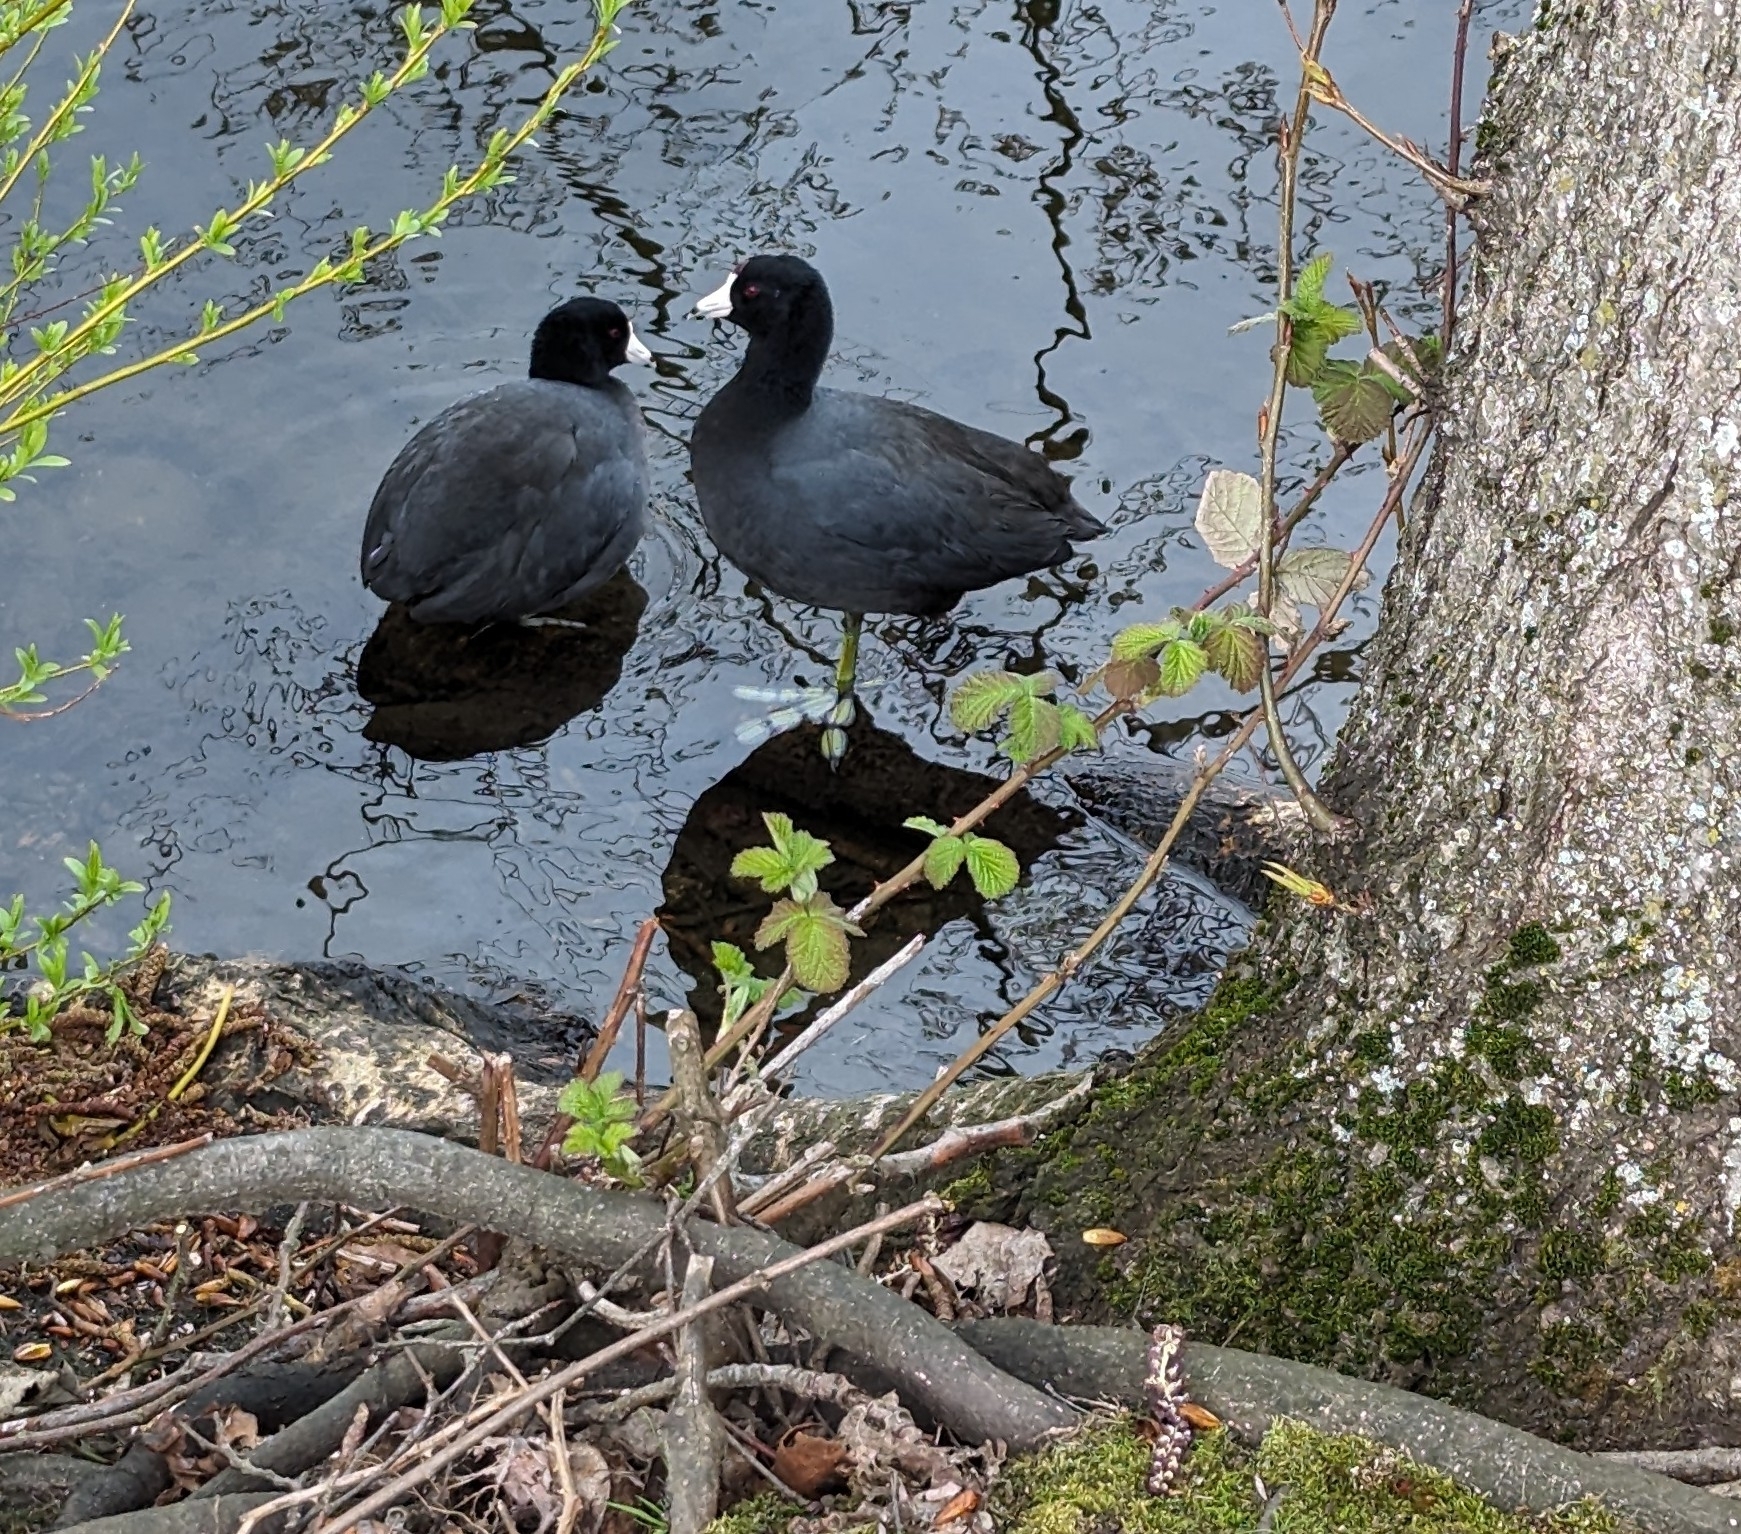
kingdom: Animalia
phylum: Chordata
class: Aves
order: Gruiformes
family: Rallidae
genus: Fulica
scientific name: Fulica americana
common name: American coot
